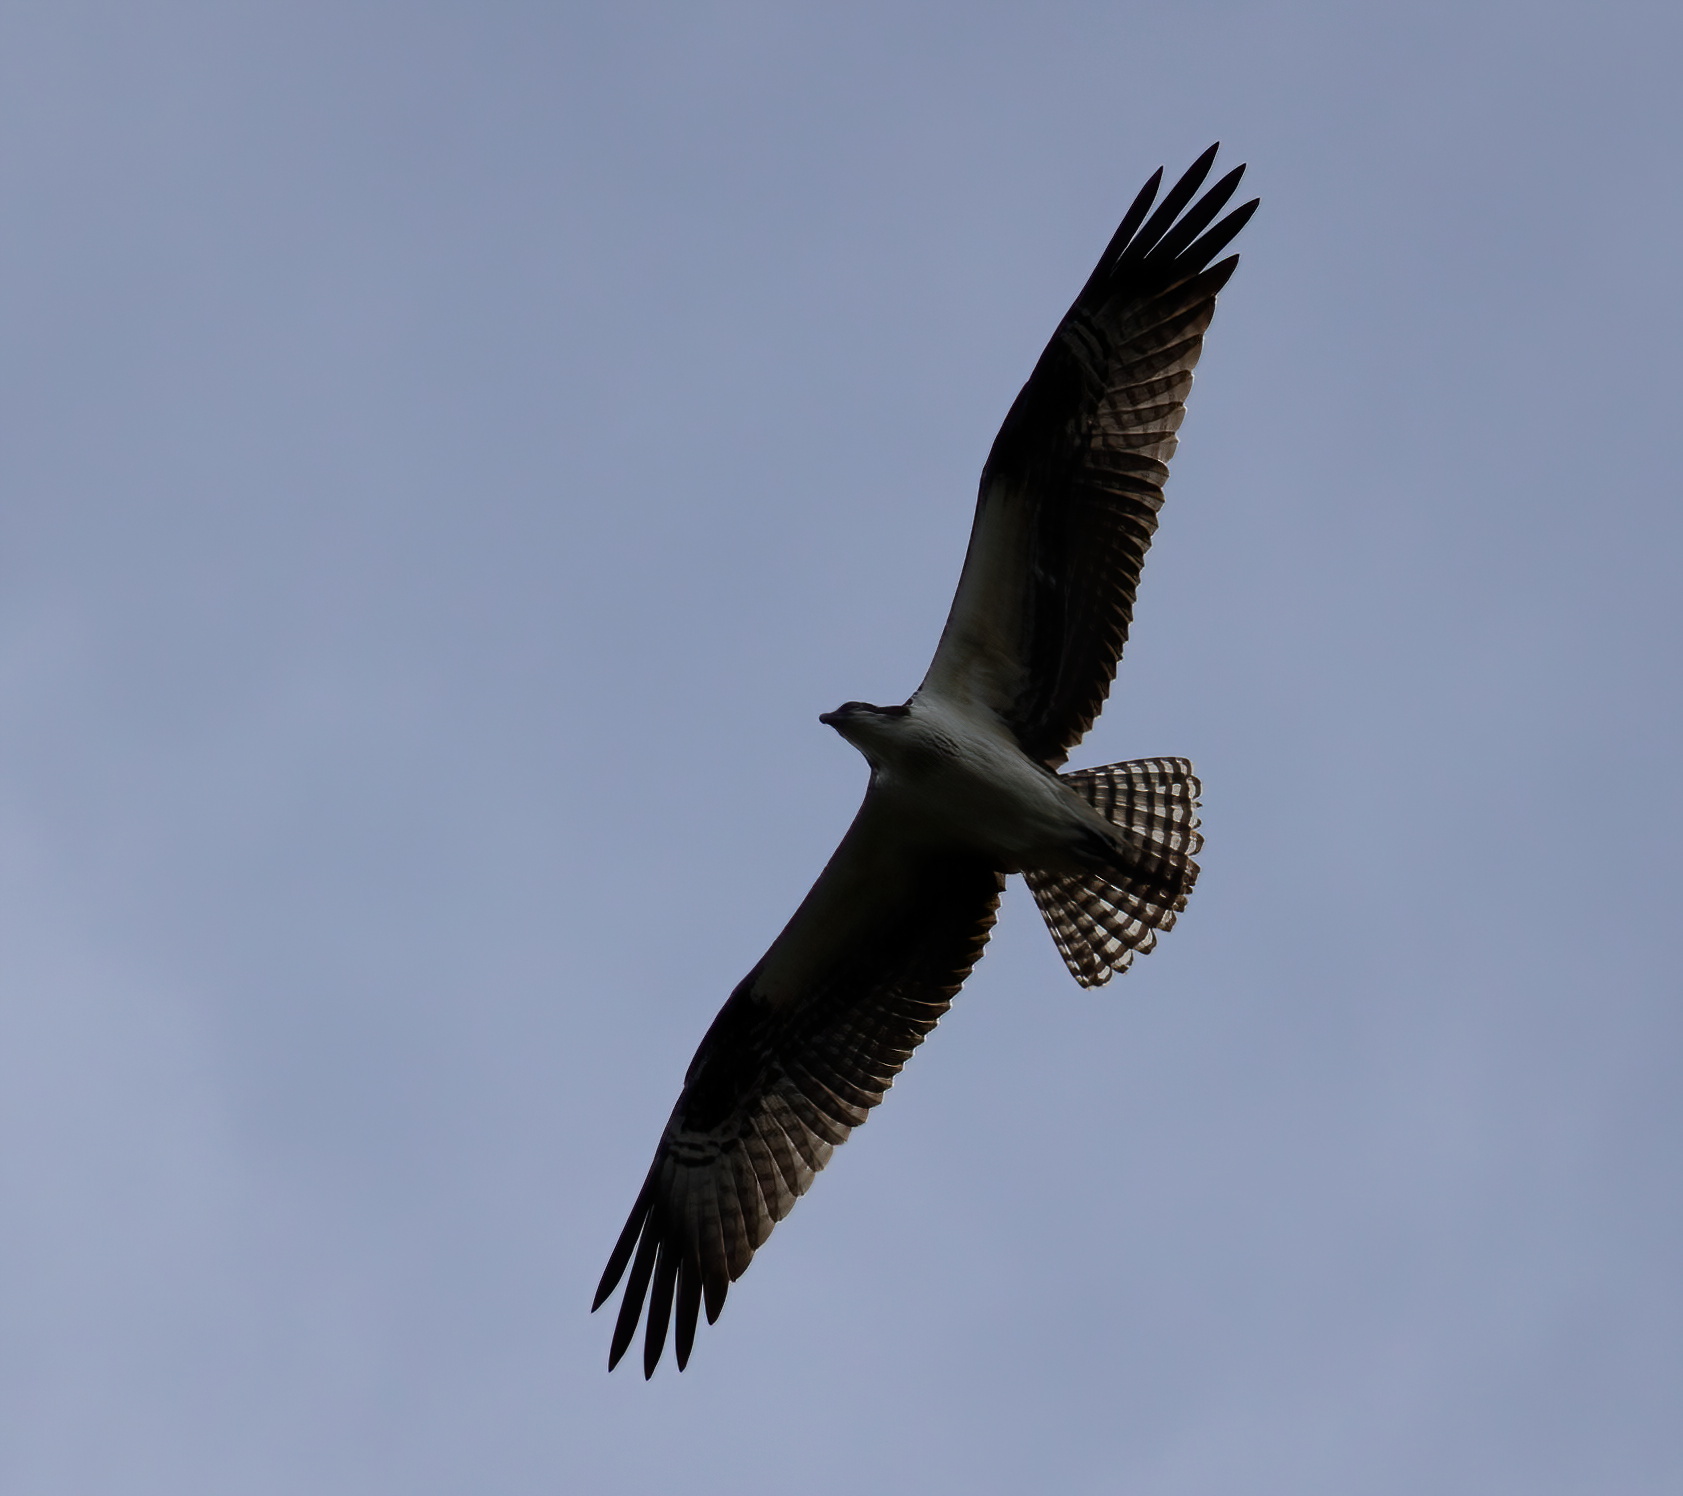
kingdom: Animalia
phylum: Chordata
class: Aves
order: Accipitriformes
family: Pandionidae
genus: Pandion
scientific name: Pandion haliaetus
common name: Osprey
